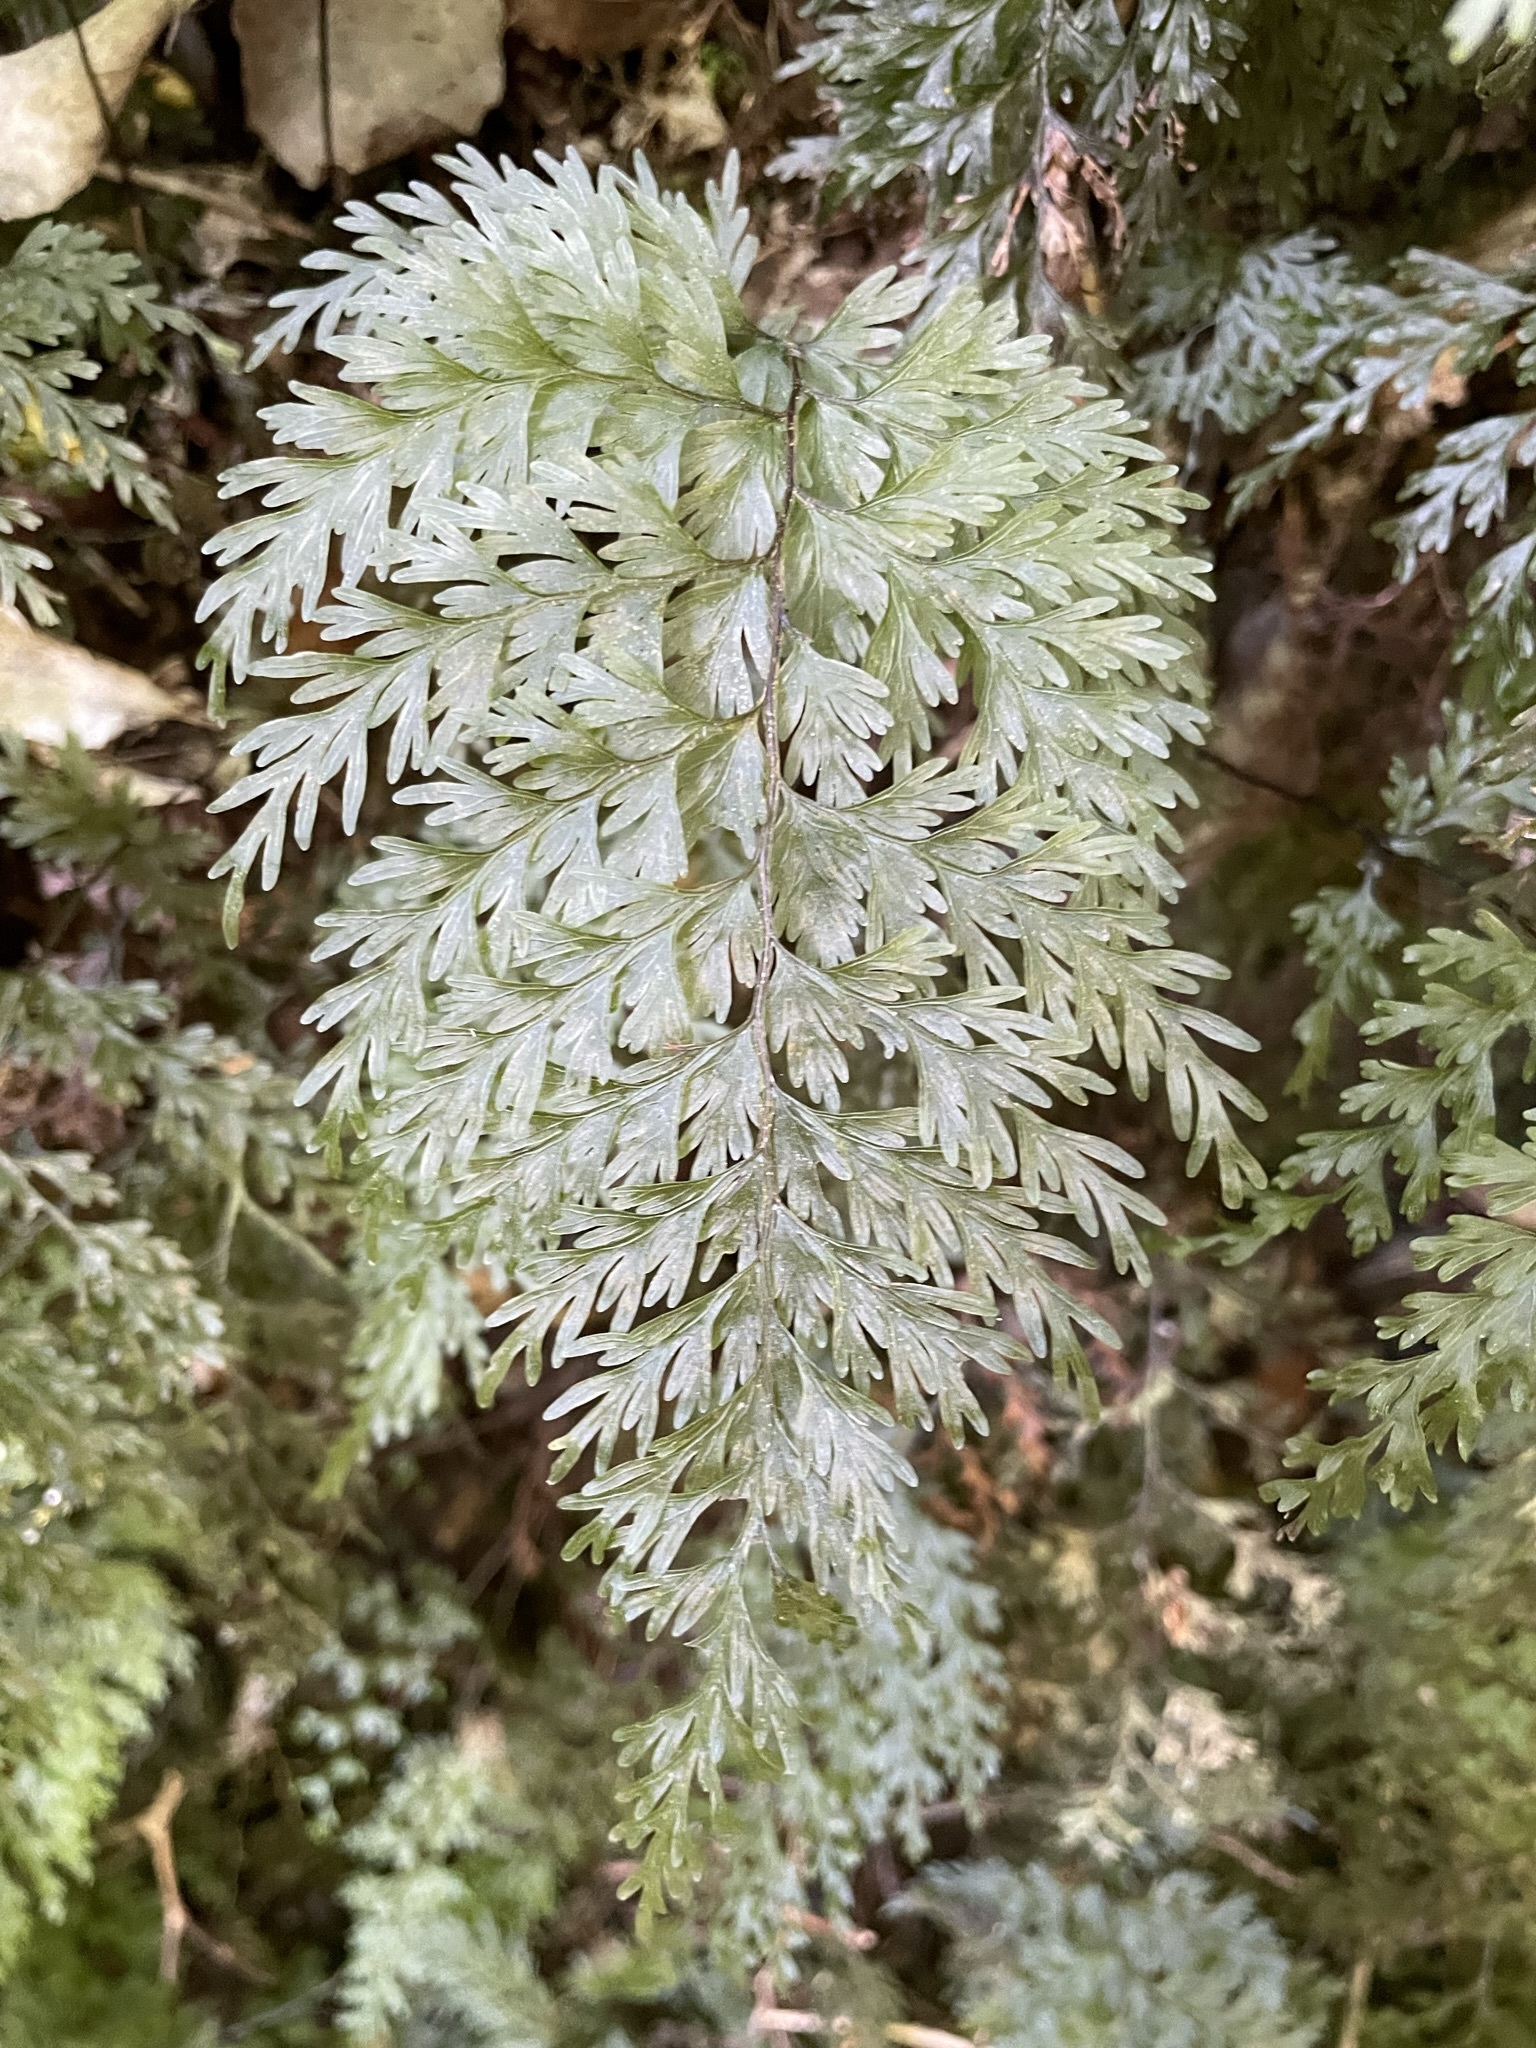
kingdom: Plantae
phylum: Tracheophyta
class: Polypodiopsida
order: Hymenophyllales
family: Hymenophyllaceae
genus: Hymenophyllum
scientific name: Hymenophyllum demissum
